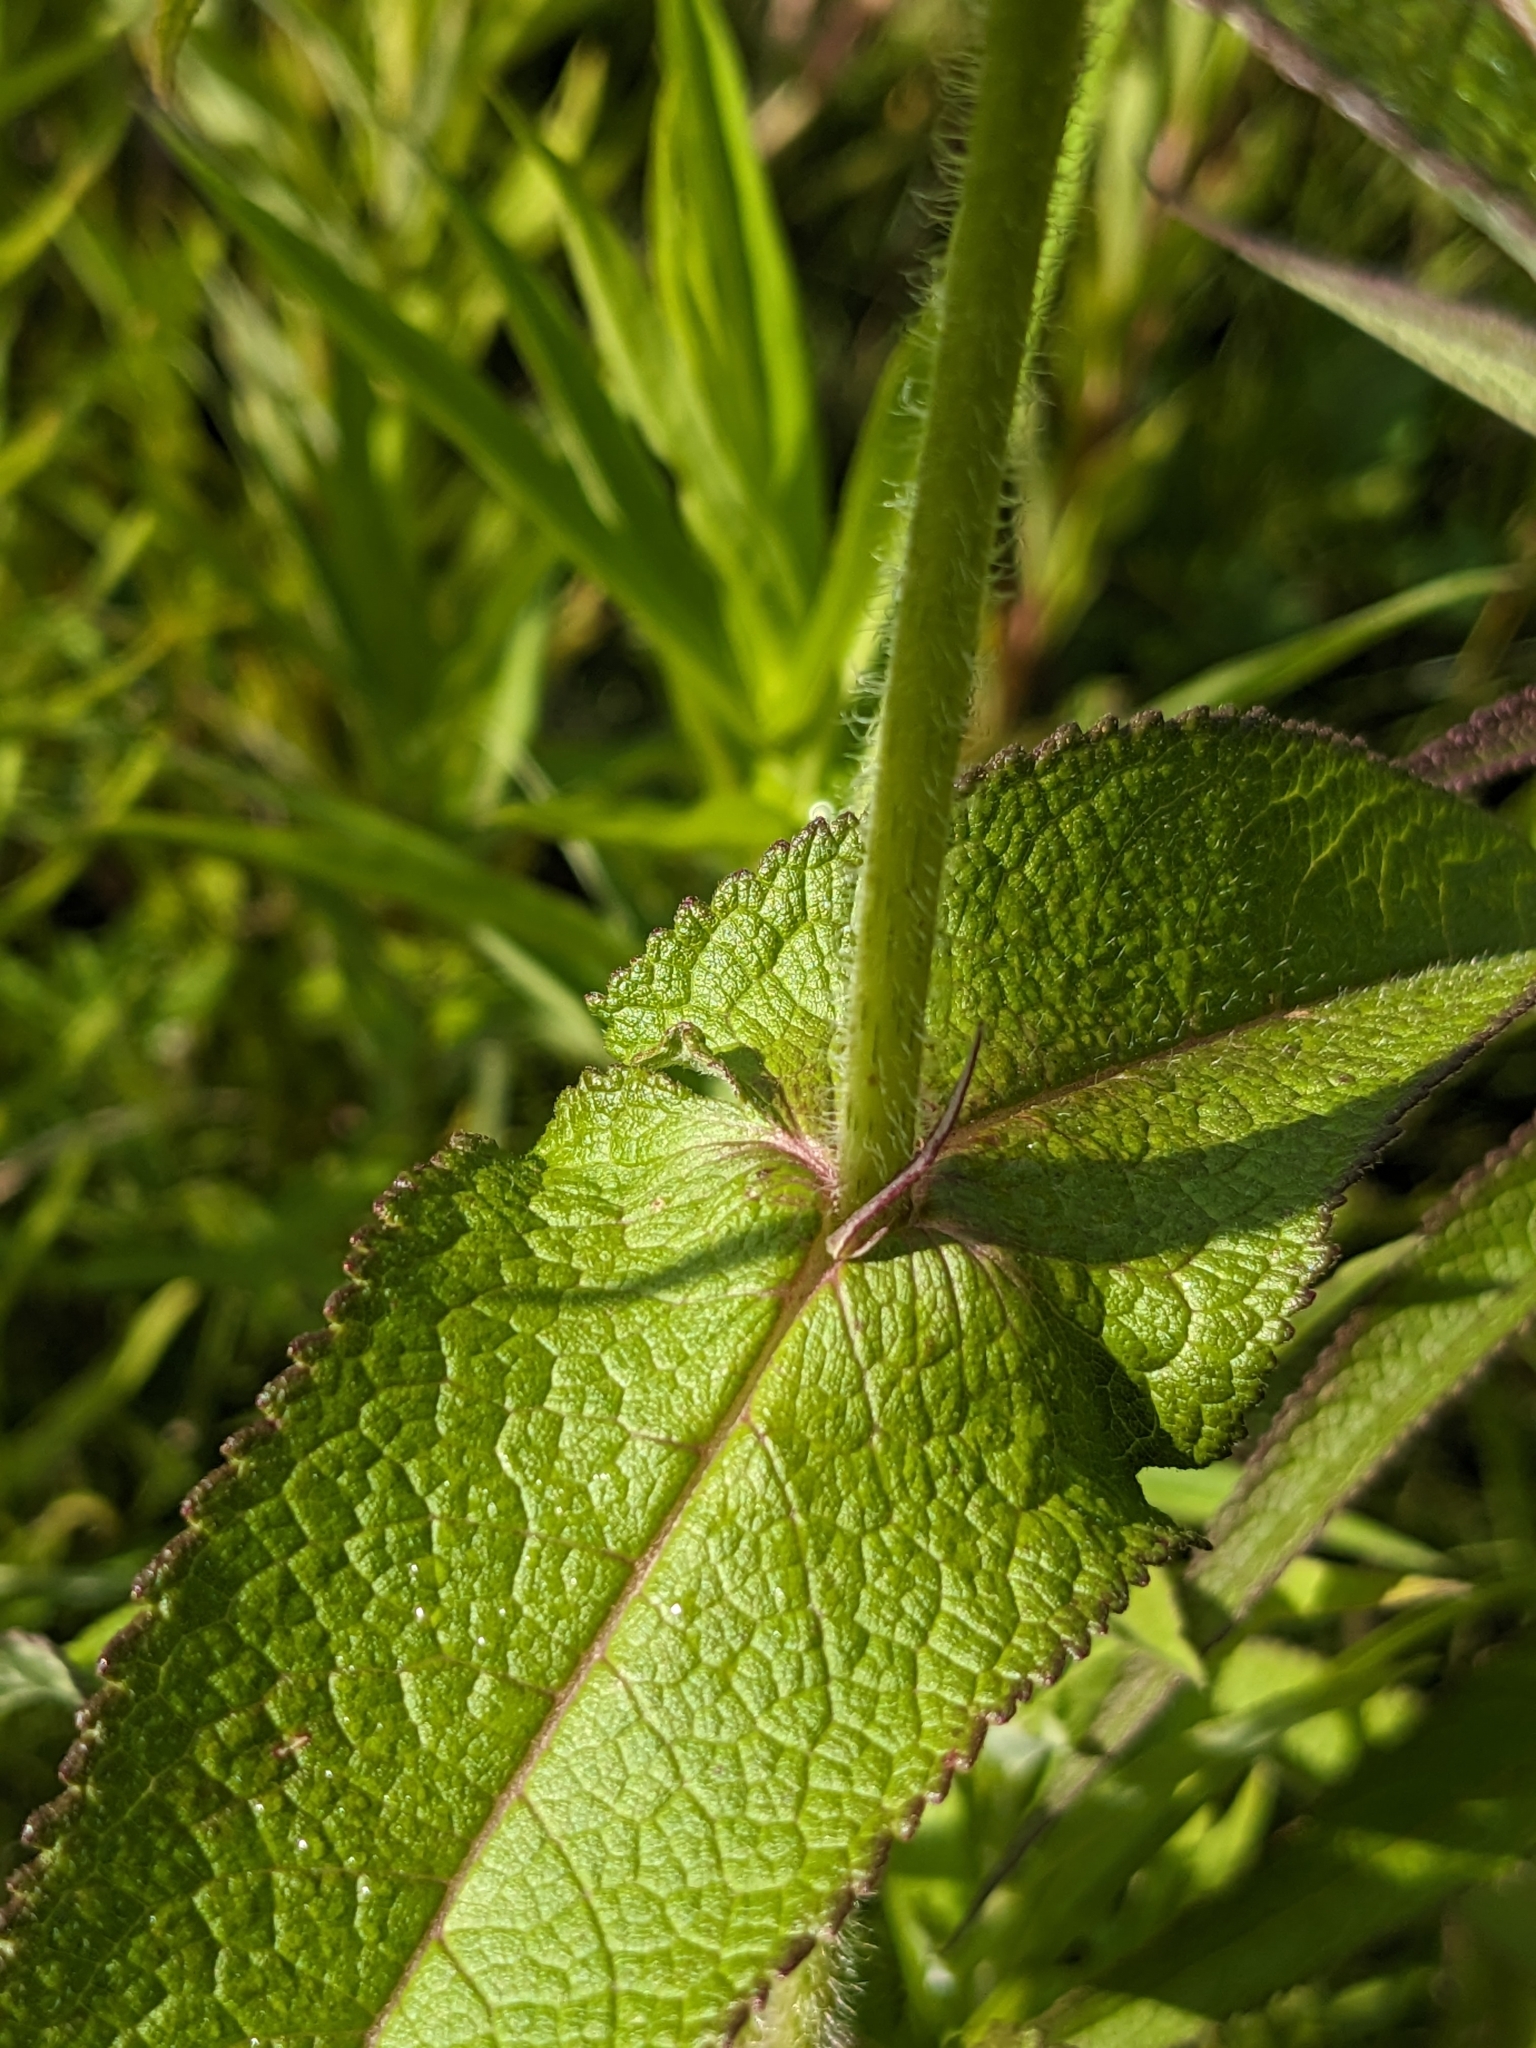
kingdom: Plantae
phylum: Tracheophyta
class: Magnoliopsida
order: Asterales
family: Asteraceae
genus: Eupatorium
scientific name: Eupatorium perfoliatum
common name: Boneset
